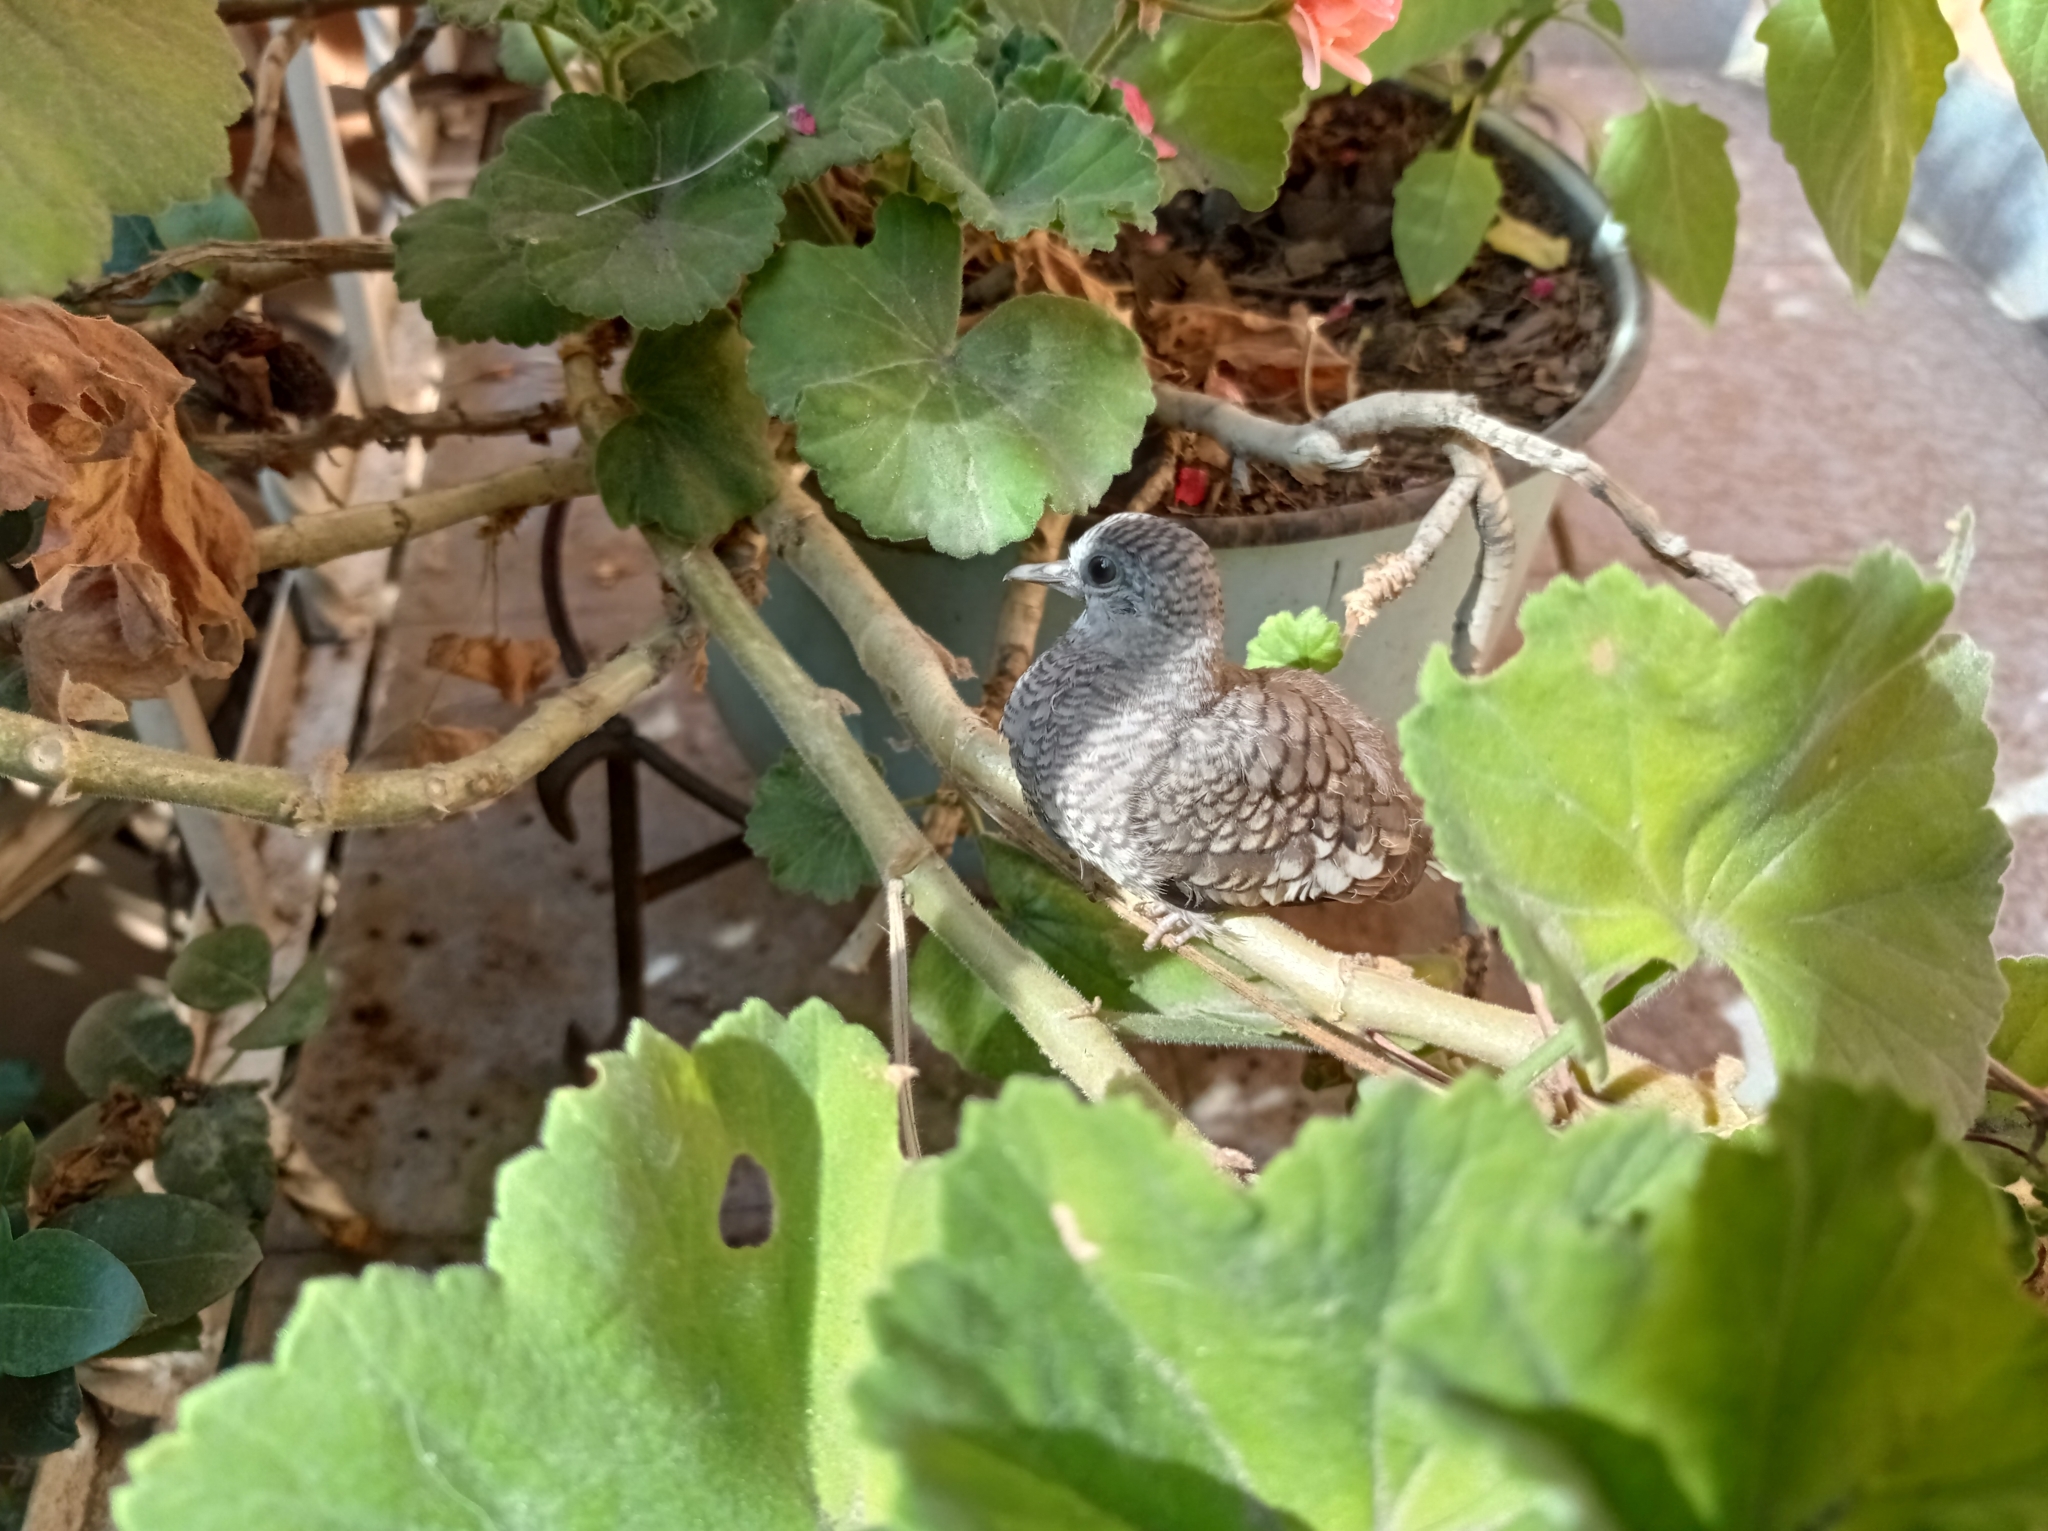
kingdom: Animalia
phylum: Chordata
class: Aves
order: Columbiformes
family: Columbidae
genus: Columbina
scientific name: Columbina inca
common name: Inca dove
